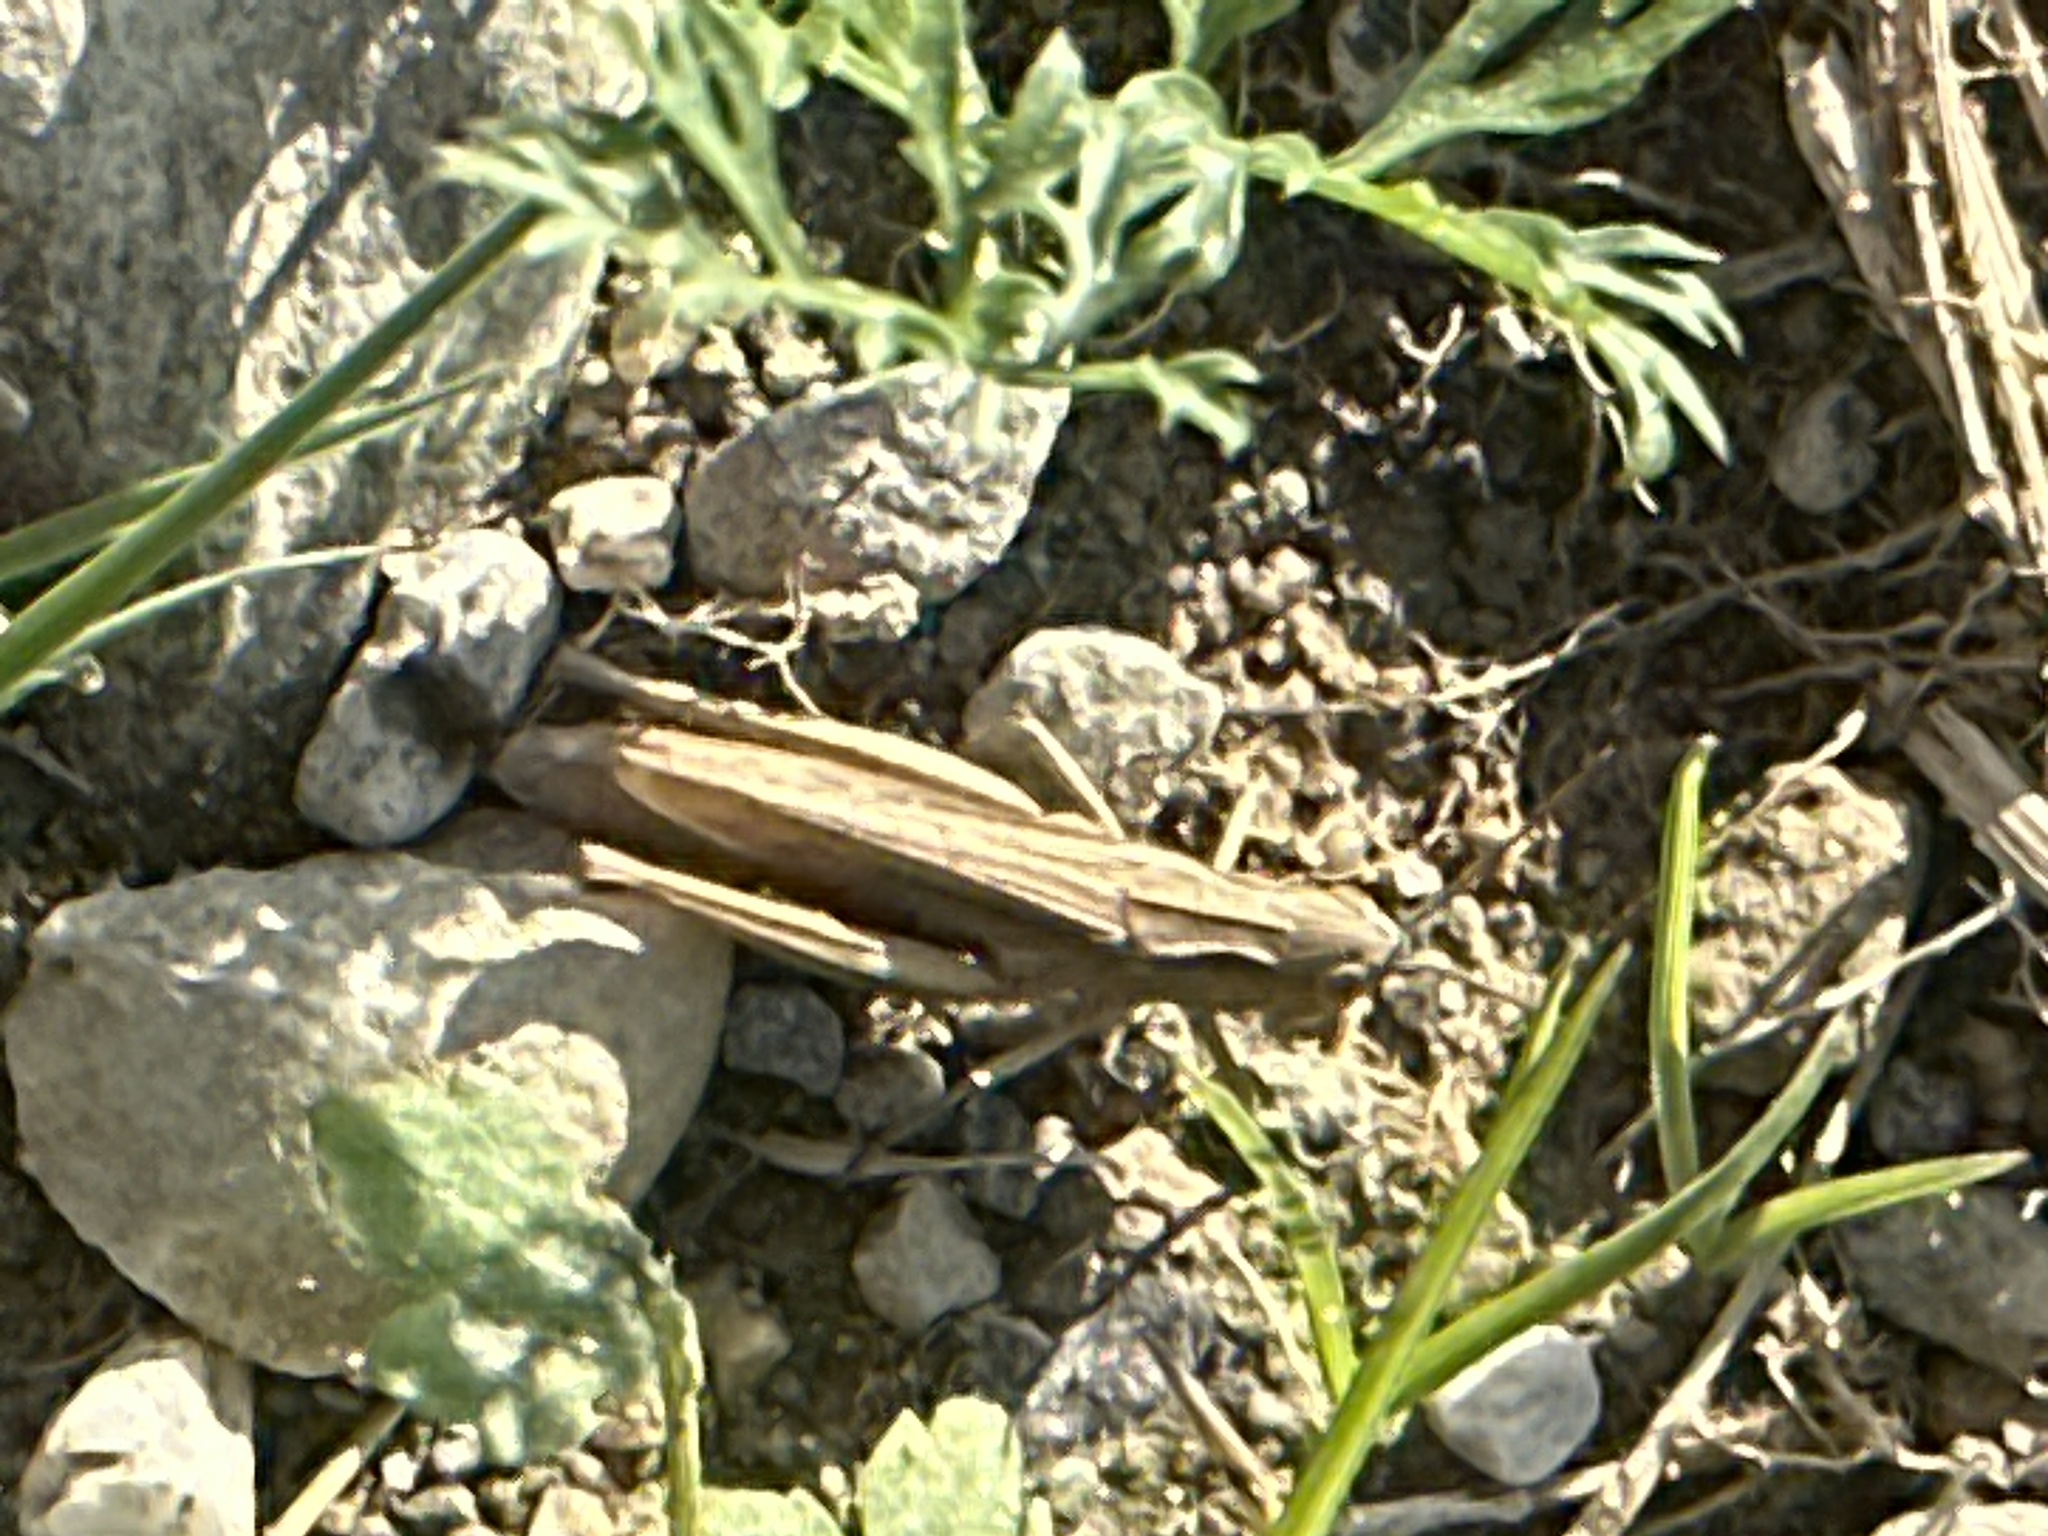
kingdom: Animalia
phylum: Arthropoda
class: Insecta
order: Orthoptera
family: Acrididae
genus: Chorthippus
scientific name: Chorthippus dorsatus
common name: Steppe grasshopper
